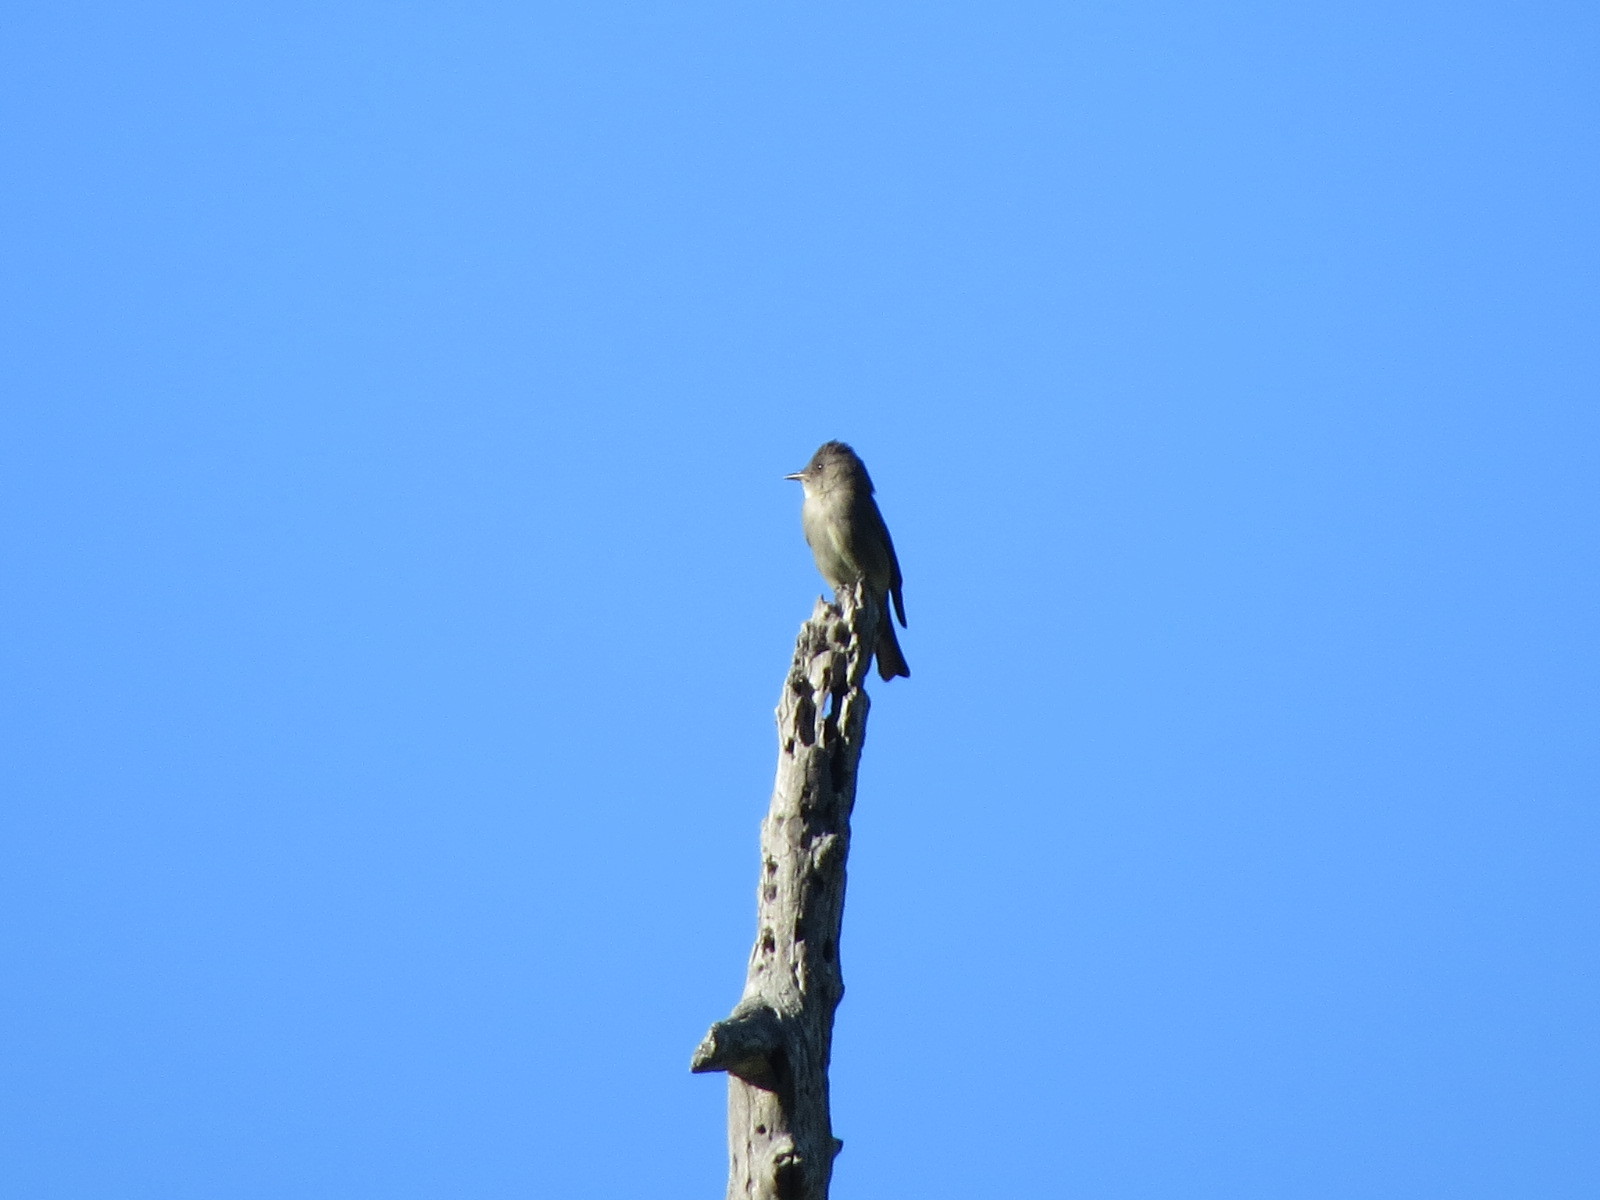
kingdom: Animalia
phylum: Chordata
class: Aves
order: Passeriformes
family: Tyrannidae
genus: Contopus
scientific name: Contopus sordidulus
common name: Western wood-pewee
